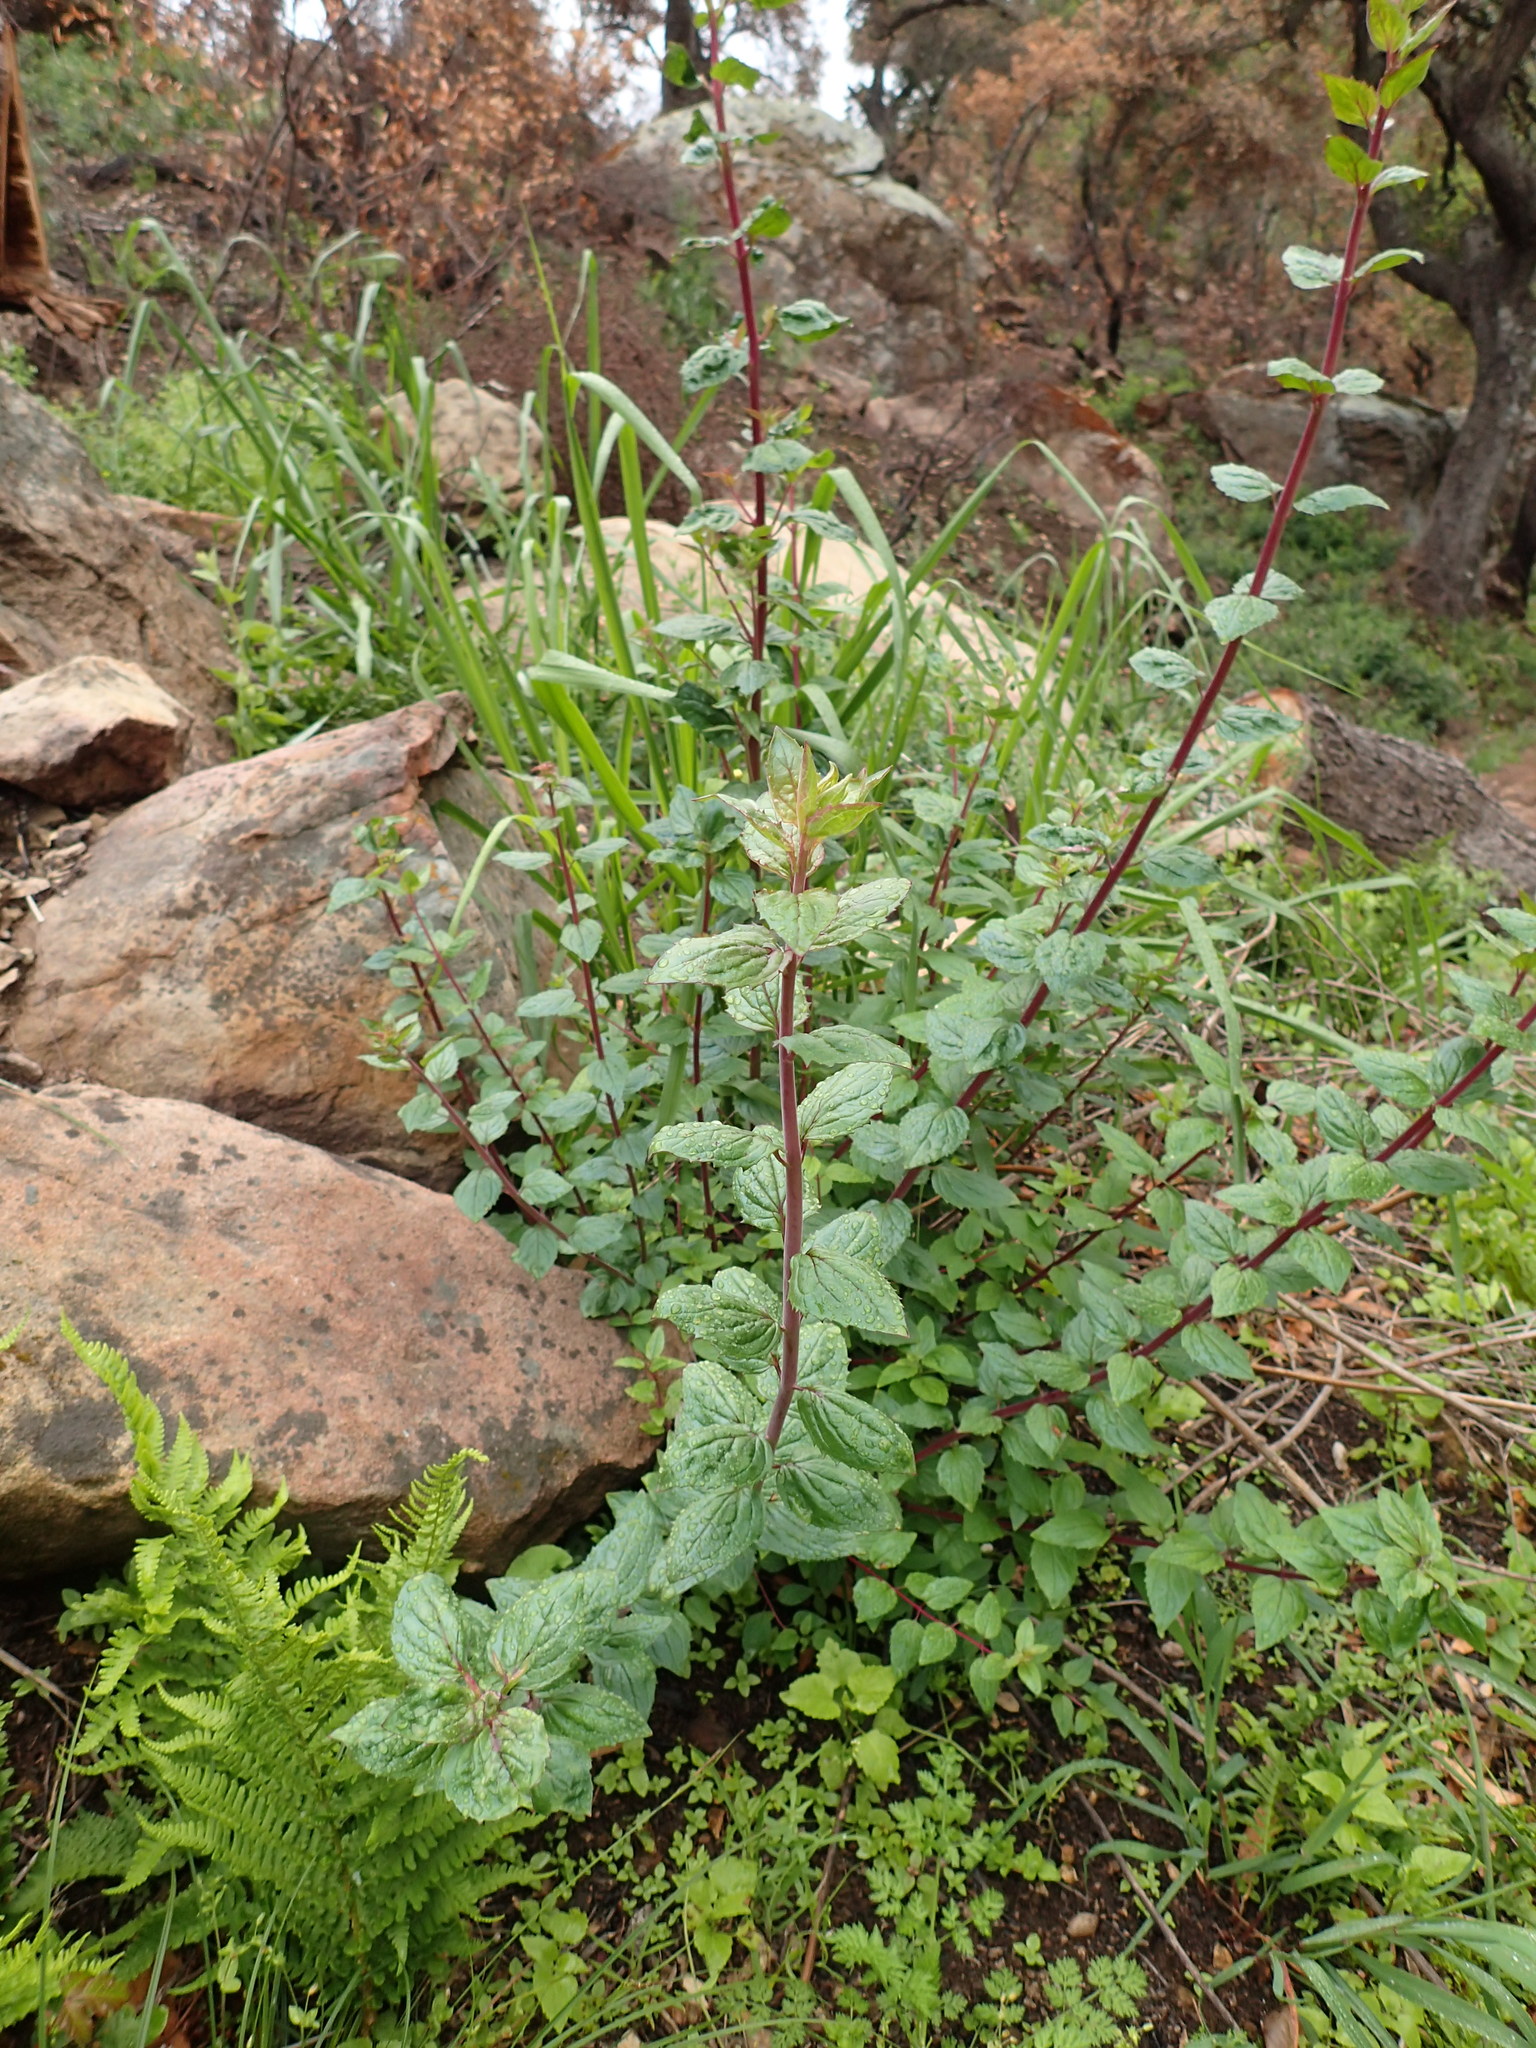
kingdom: Plantae
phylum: Tracheophyta
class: Magnoliopsida
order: Lamiales
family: Plantaginaceae
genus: Keckiella
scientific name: Keckiella cordifolia
